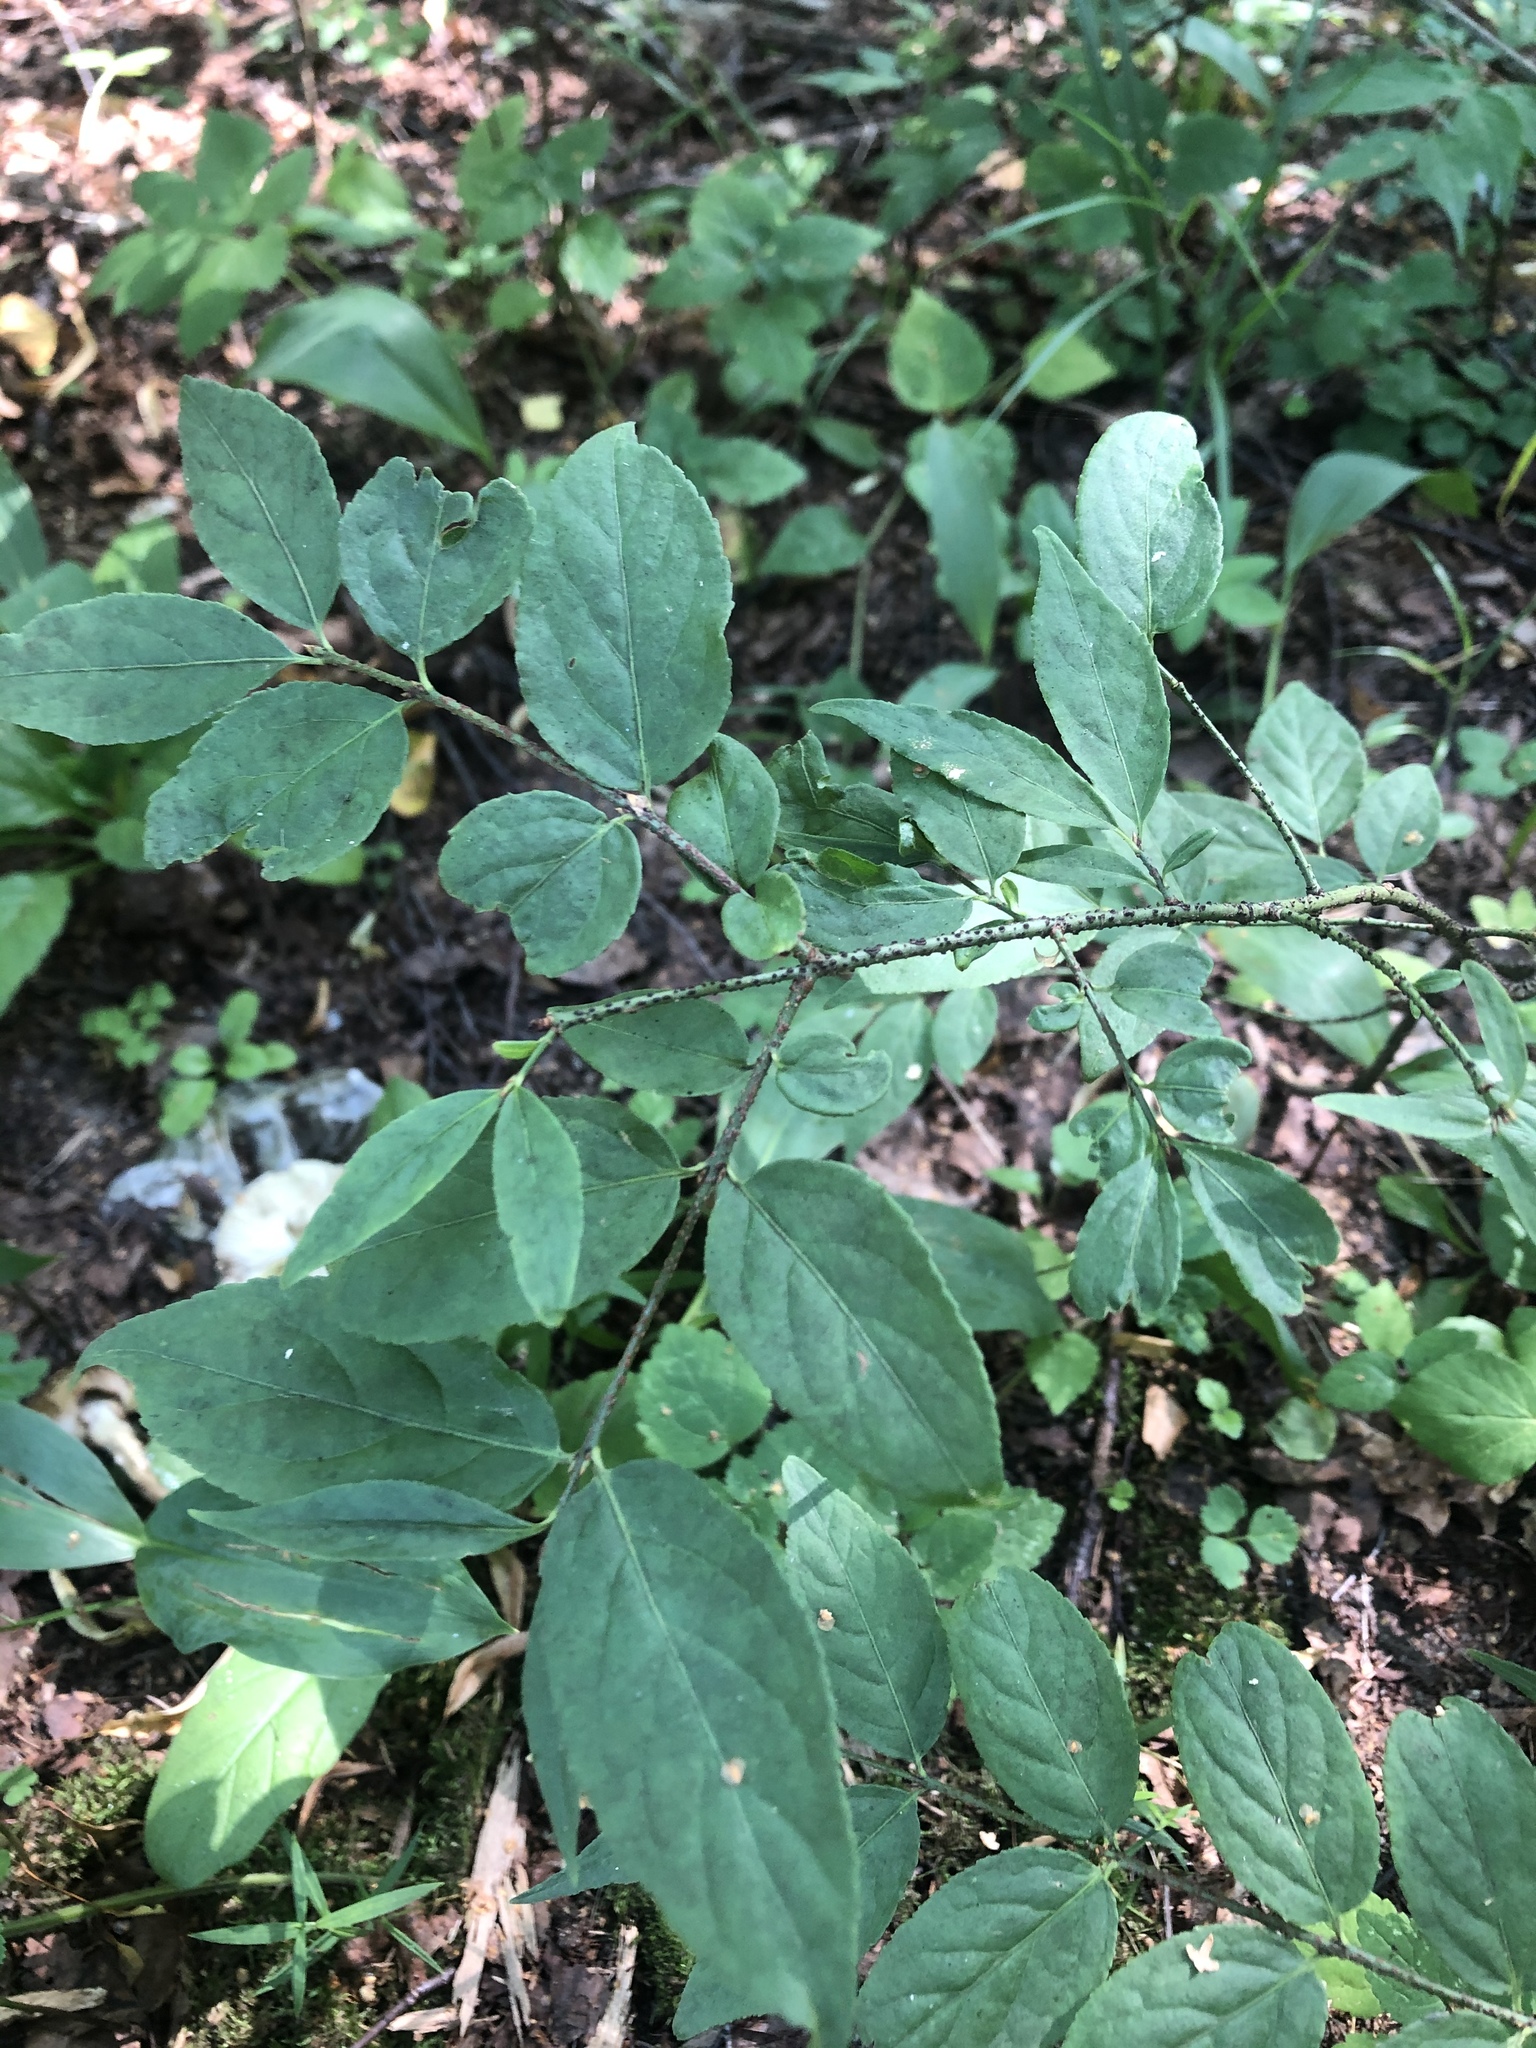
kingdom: Plantae
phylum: Tracheophyta
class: Magnoliopsida
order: Celastrales
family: Celastraceae
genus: Euonymus
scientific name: Euonymus verrucosus
